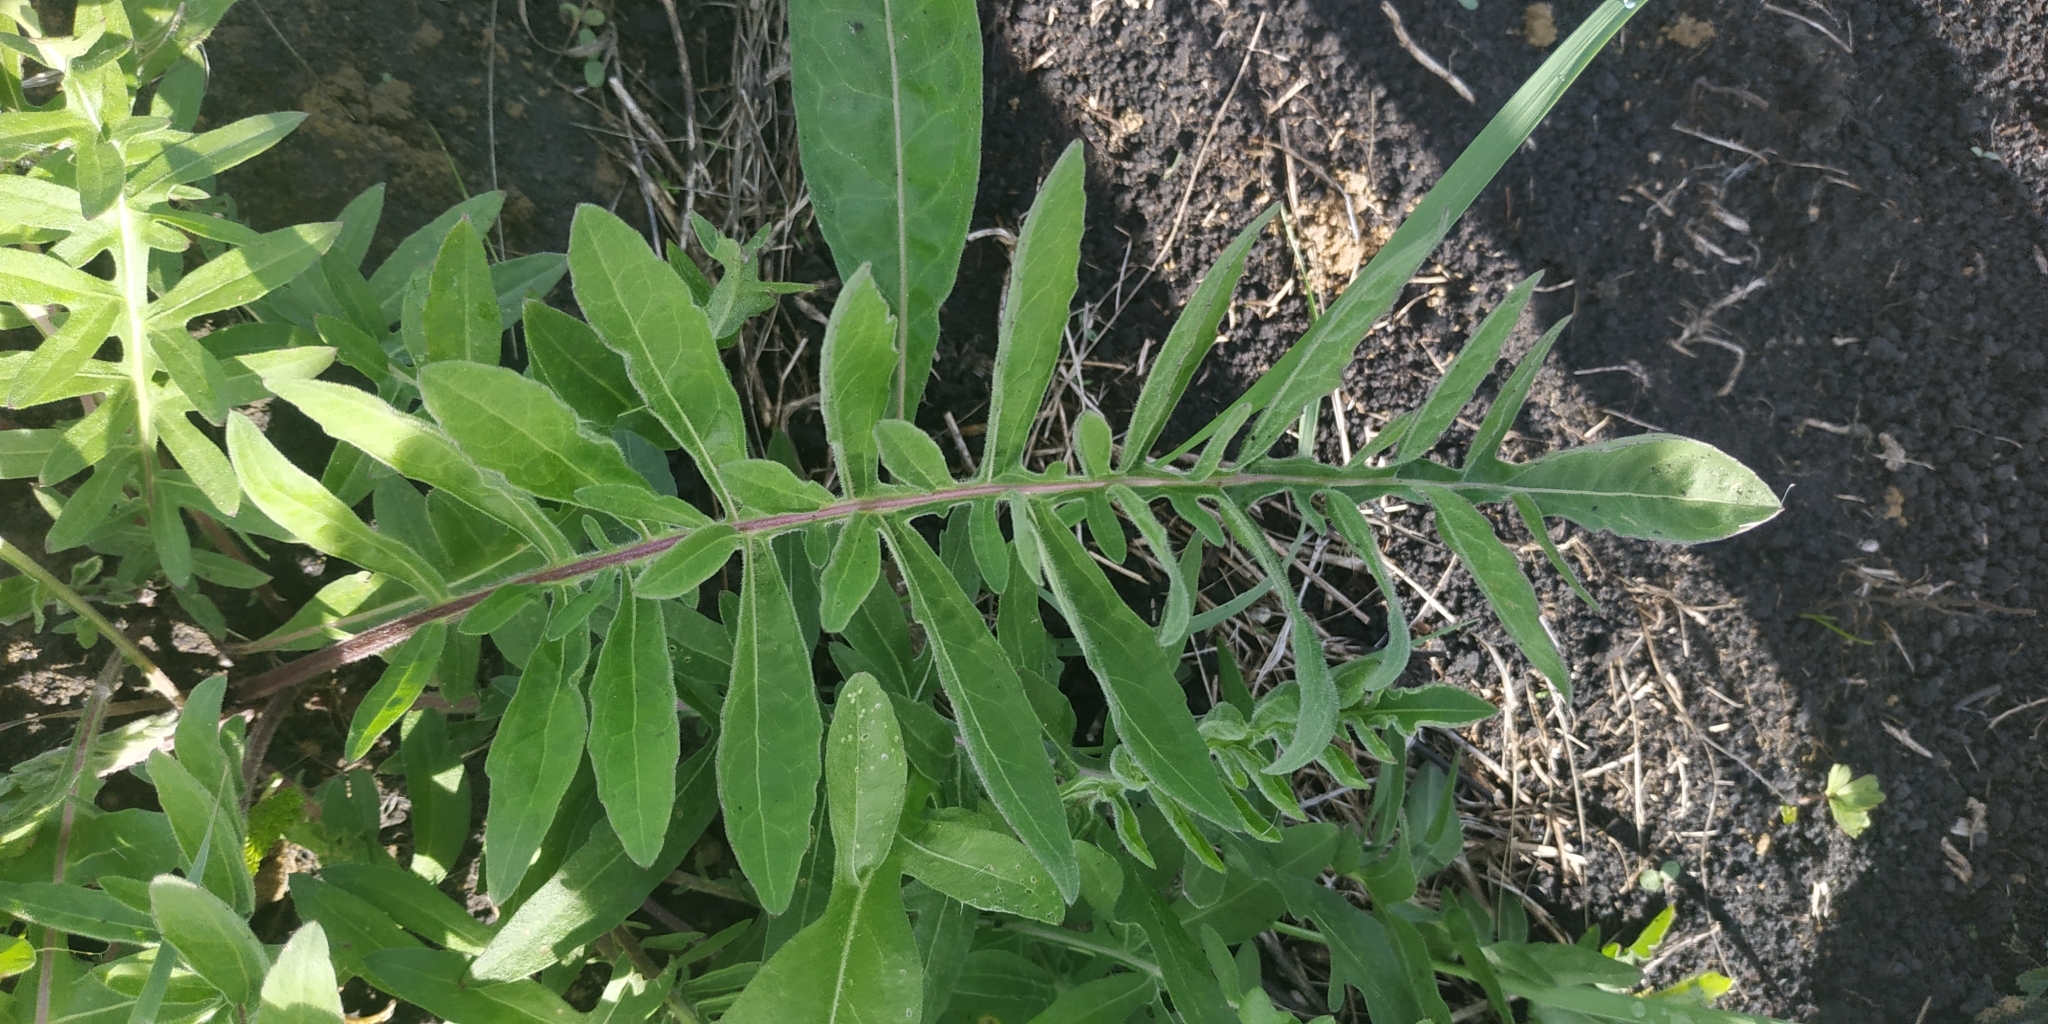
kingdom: Plantae
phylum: Tracheophyta
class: Magnoliopsida
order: Asterales
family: Asteraceae
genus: Centaurea
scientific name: Centaurea scabiosa
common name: Greater knapweed
